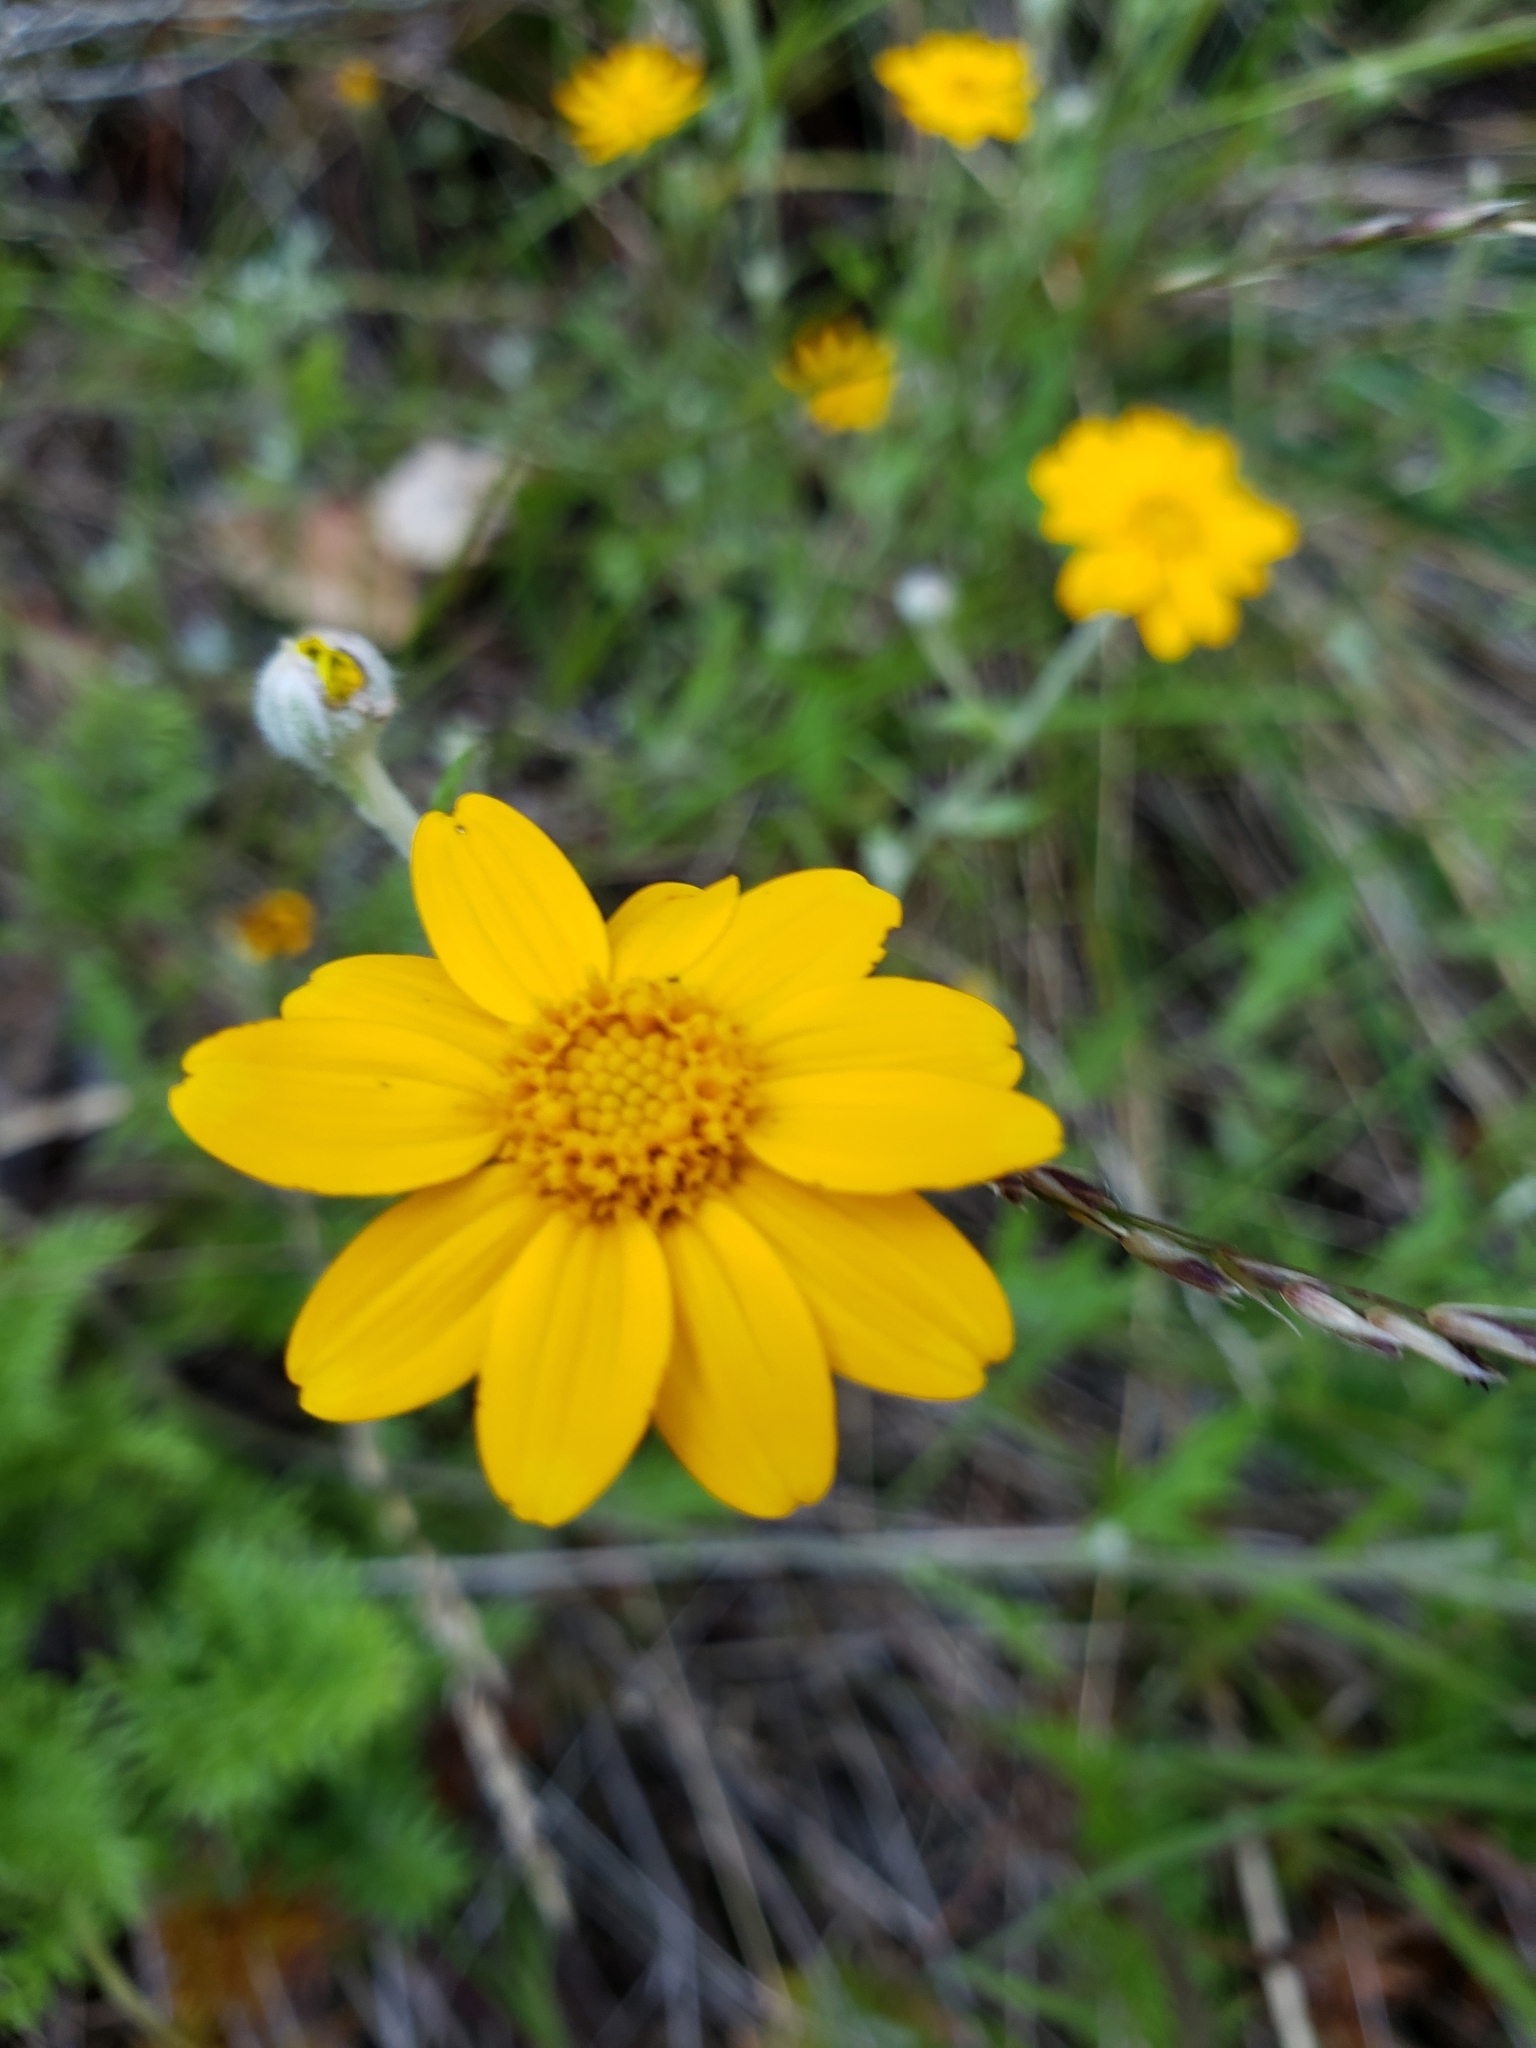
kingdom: Plantae
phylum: Tracheophyta
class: Magnoliopsida
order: Asterales
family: Asteraceae
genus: Eriophyllum
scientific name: Eriophyllum lanatum
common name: Common woolly-sunflower
